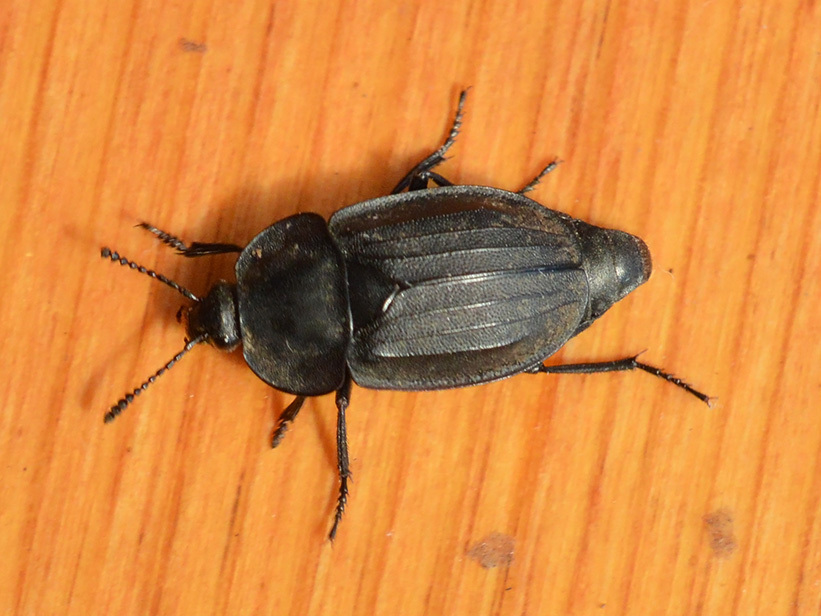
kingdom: Animalia
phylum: Arthropoda
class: Insecta
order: Coleoptera
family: Staphylinidae
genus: Silpha
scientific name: Silpha tristis
